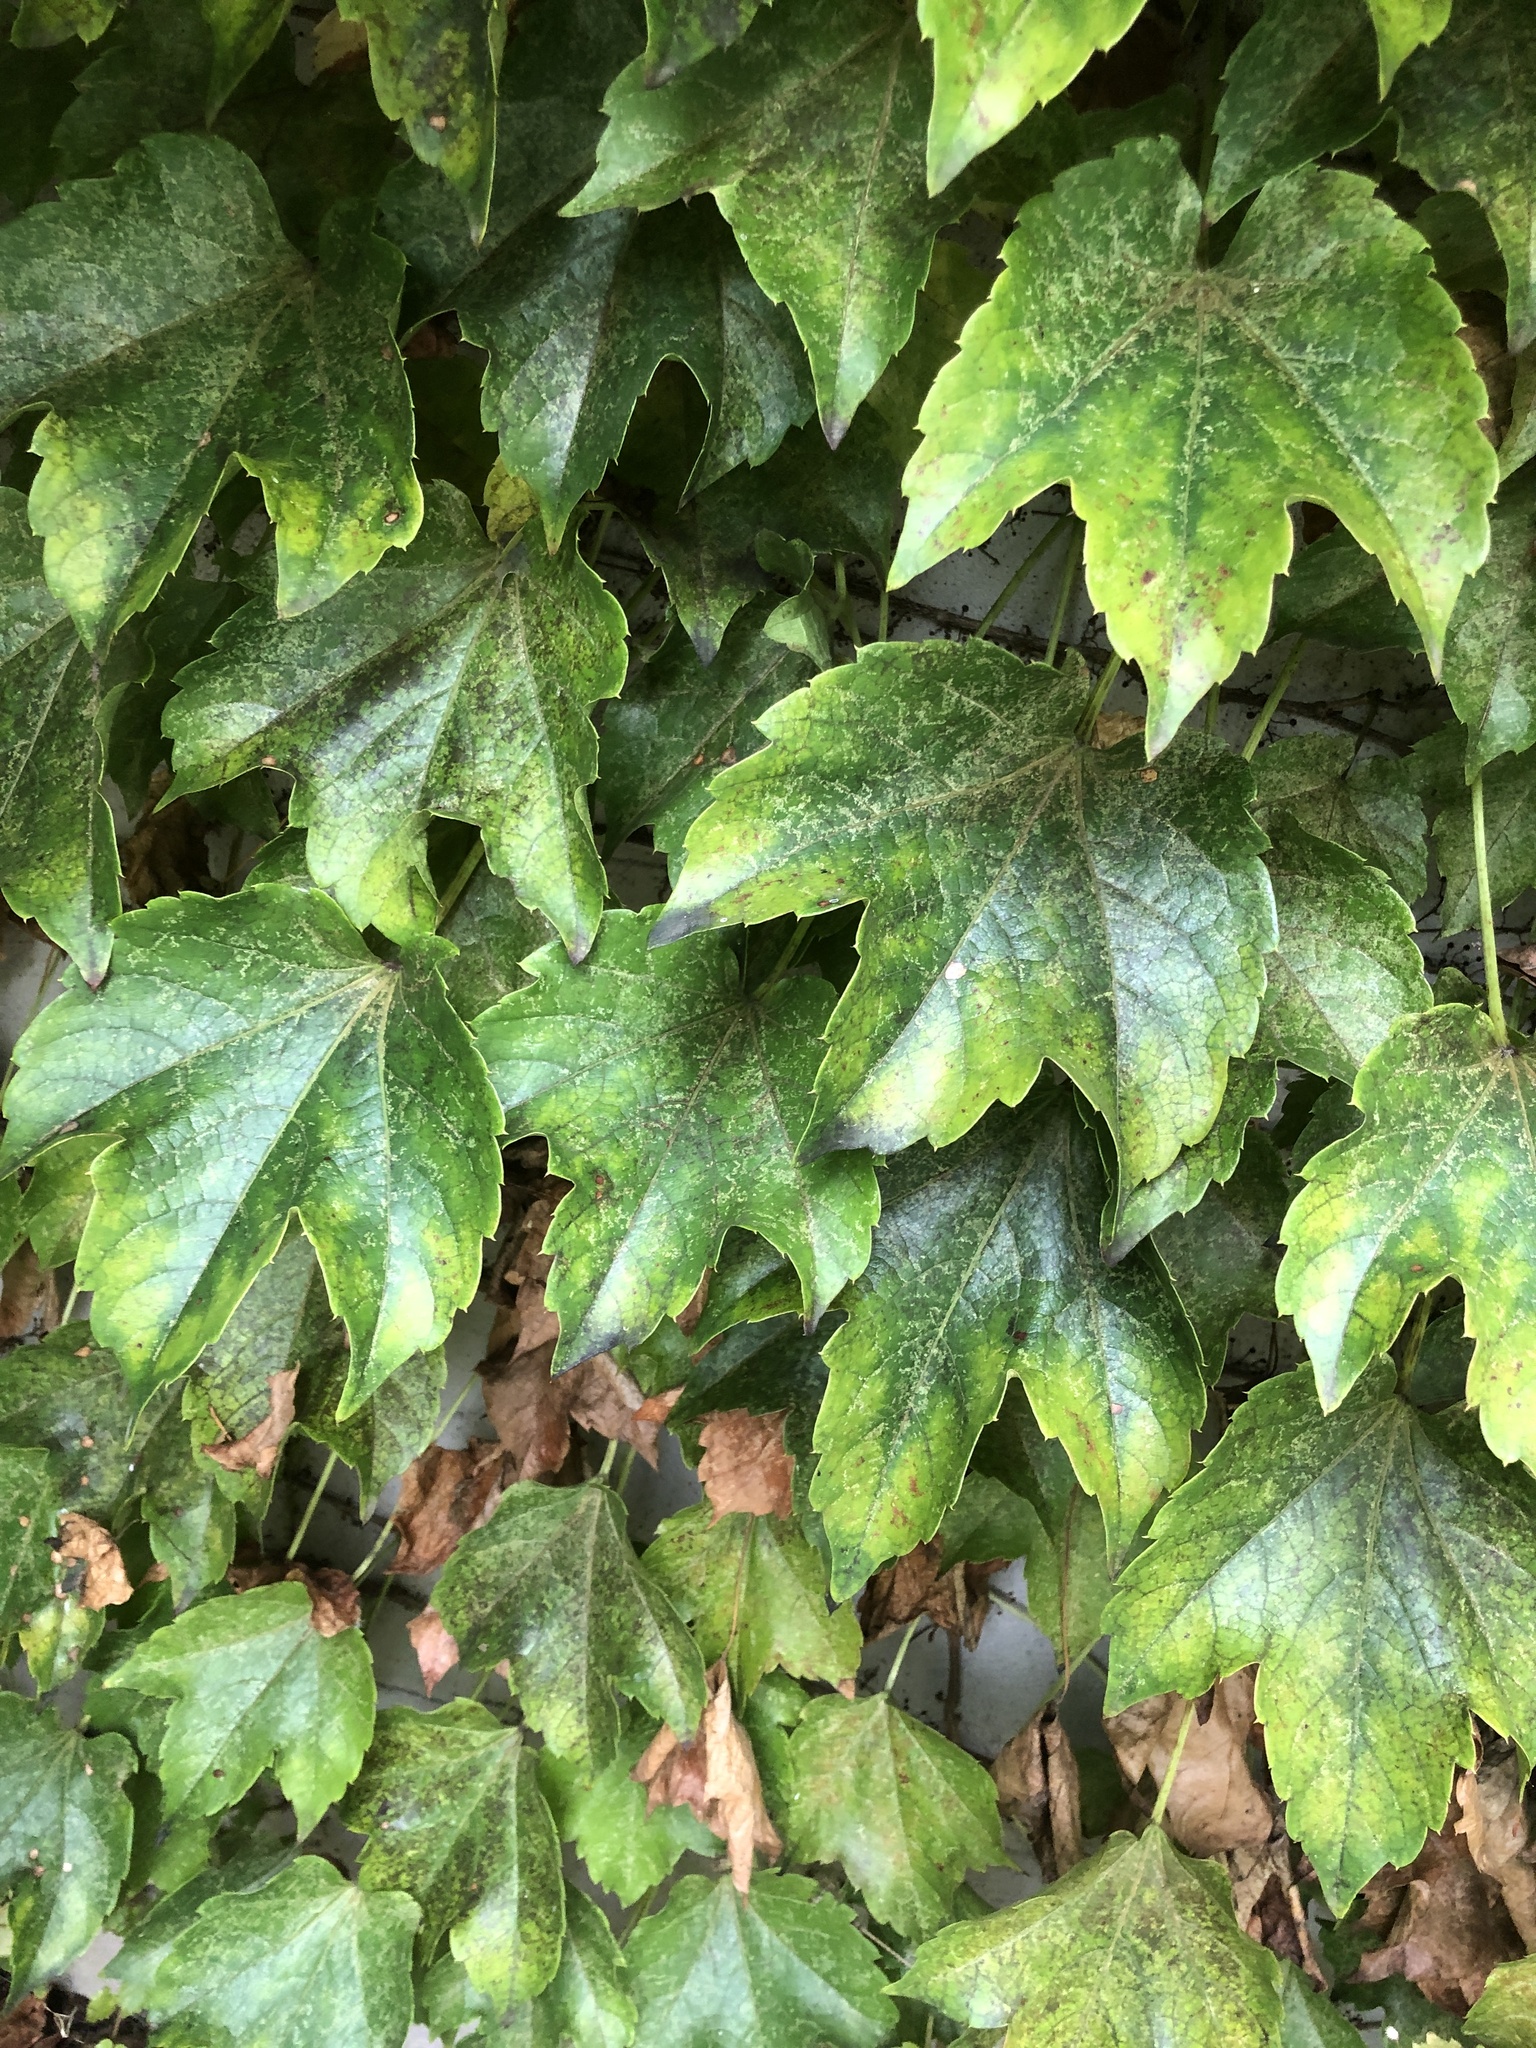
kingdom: Plantae
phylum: Tracheophyta
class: Magnoliopsida
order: Vitales
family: Vitaceae
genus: Parthenocissus
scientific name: Parthenocissus tricuspidata
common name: Boston ivy
